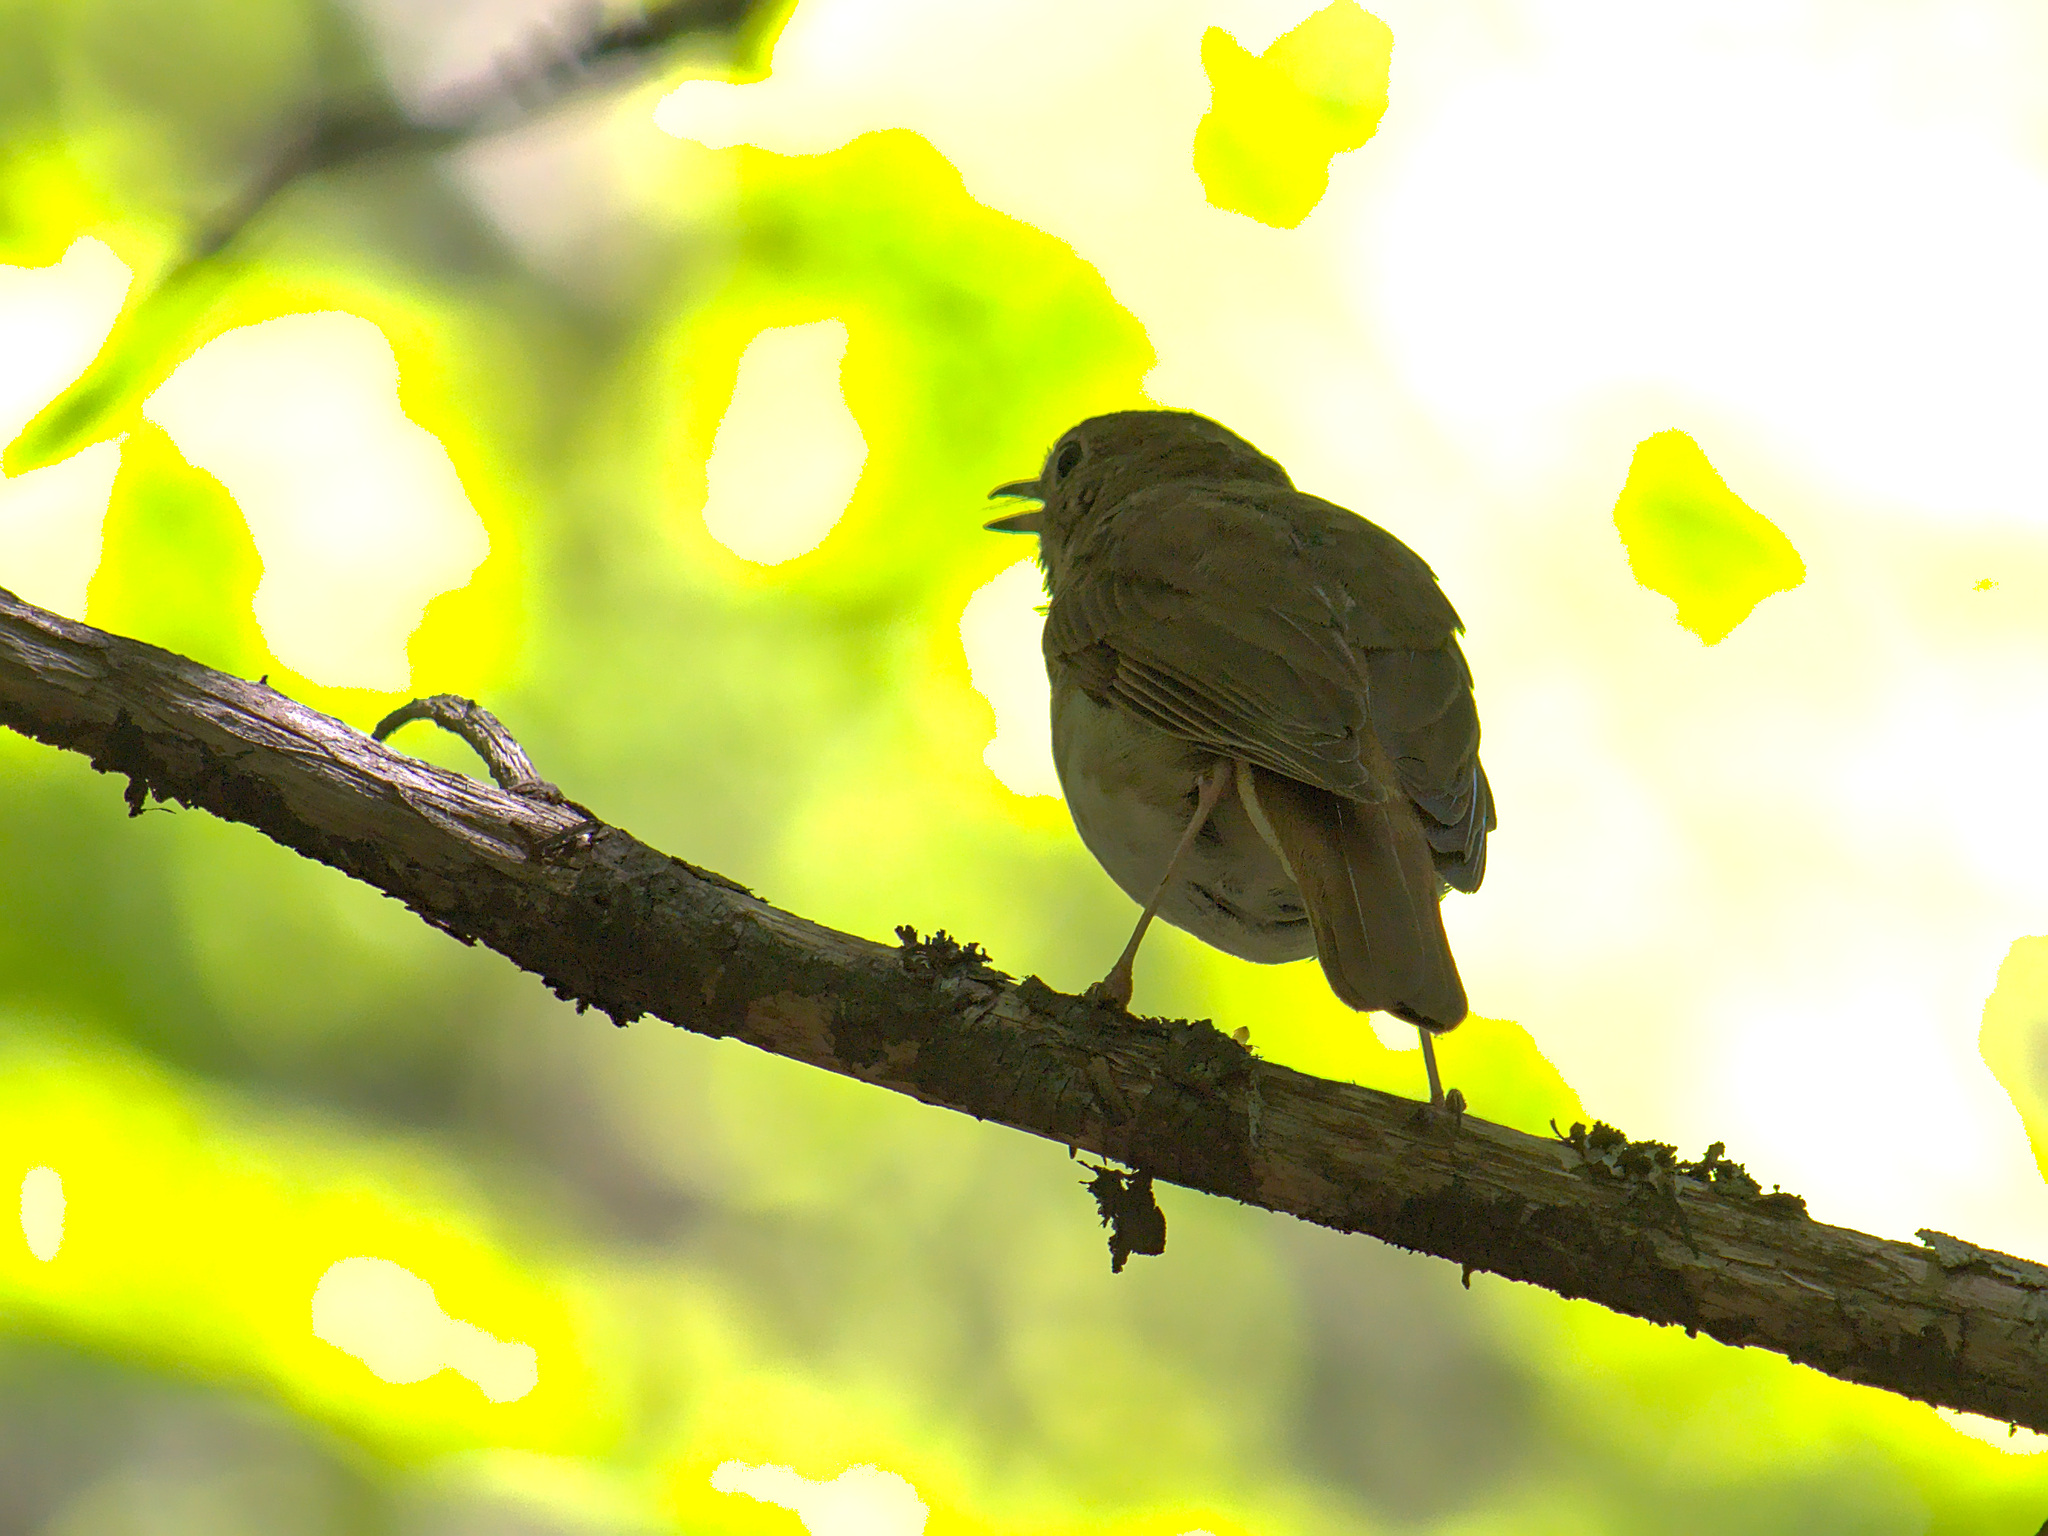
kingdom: Animalia
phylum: Chordata
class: Aves
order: Passeriformes
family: Turdidae
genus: Catharus
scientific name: Catharus guttatus
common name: Hermit thrush
